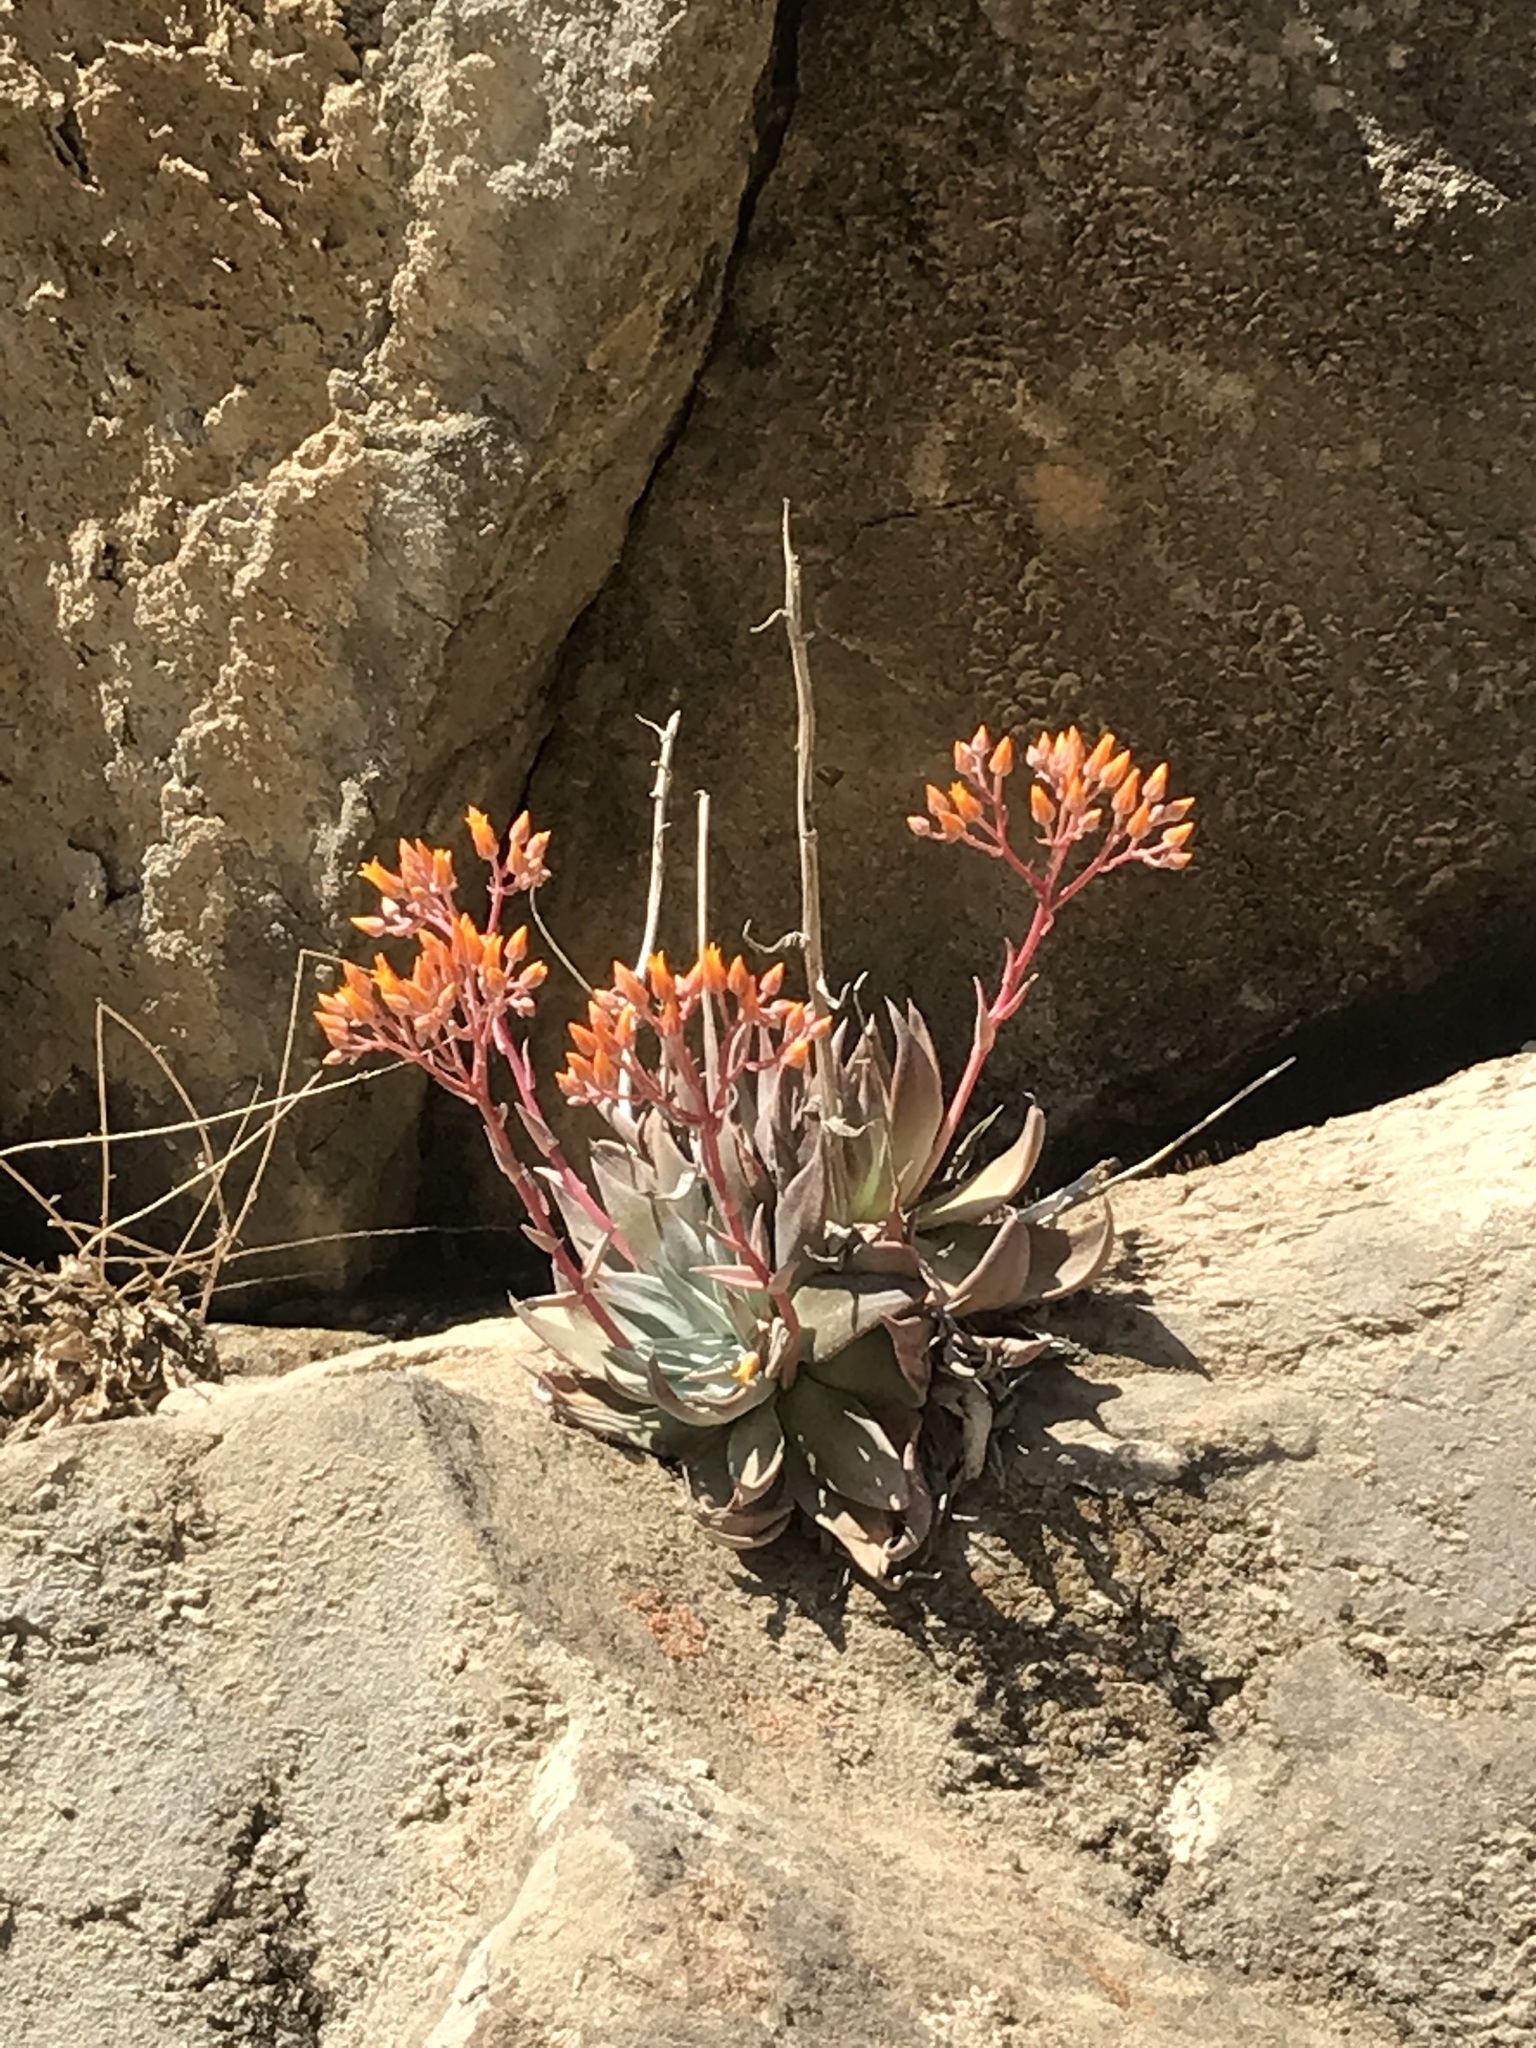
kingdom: Plantae
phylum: Tracheophyta
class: Magnoliopsida
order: Saxifragales
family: Crassulaceae
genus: Dudleya
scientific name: Dudleya cymosa
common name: Canyon dudleya
